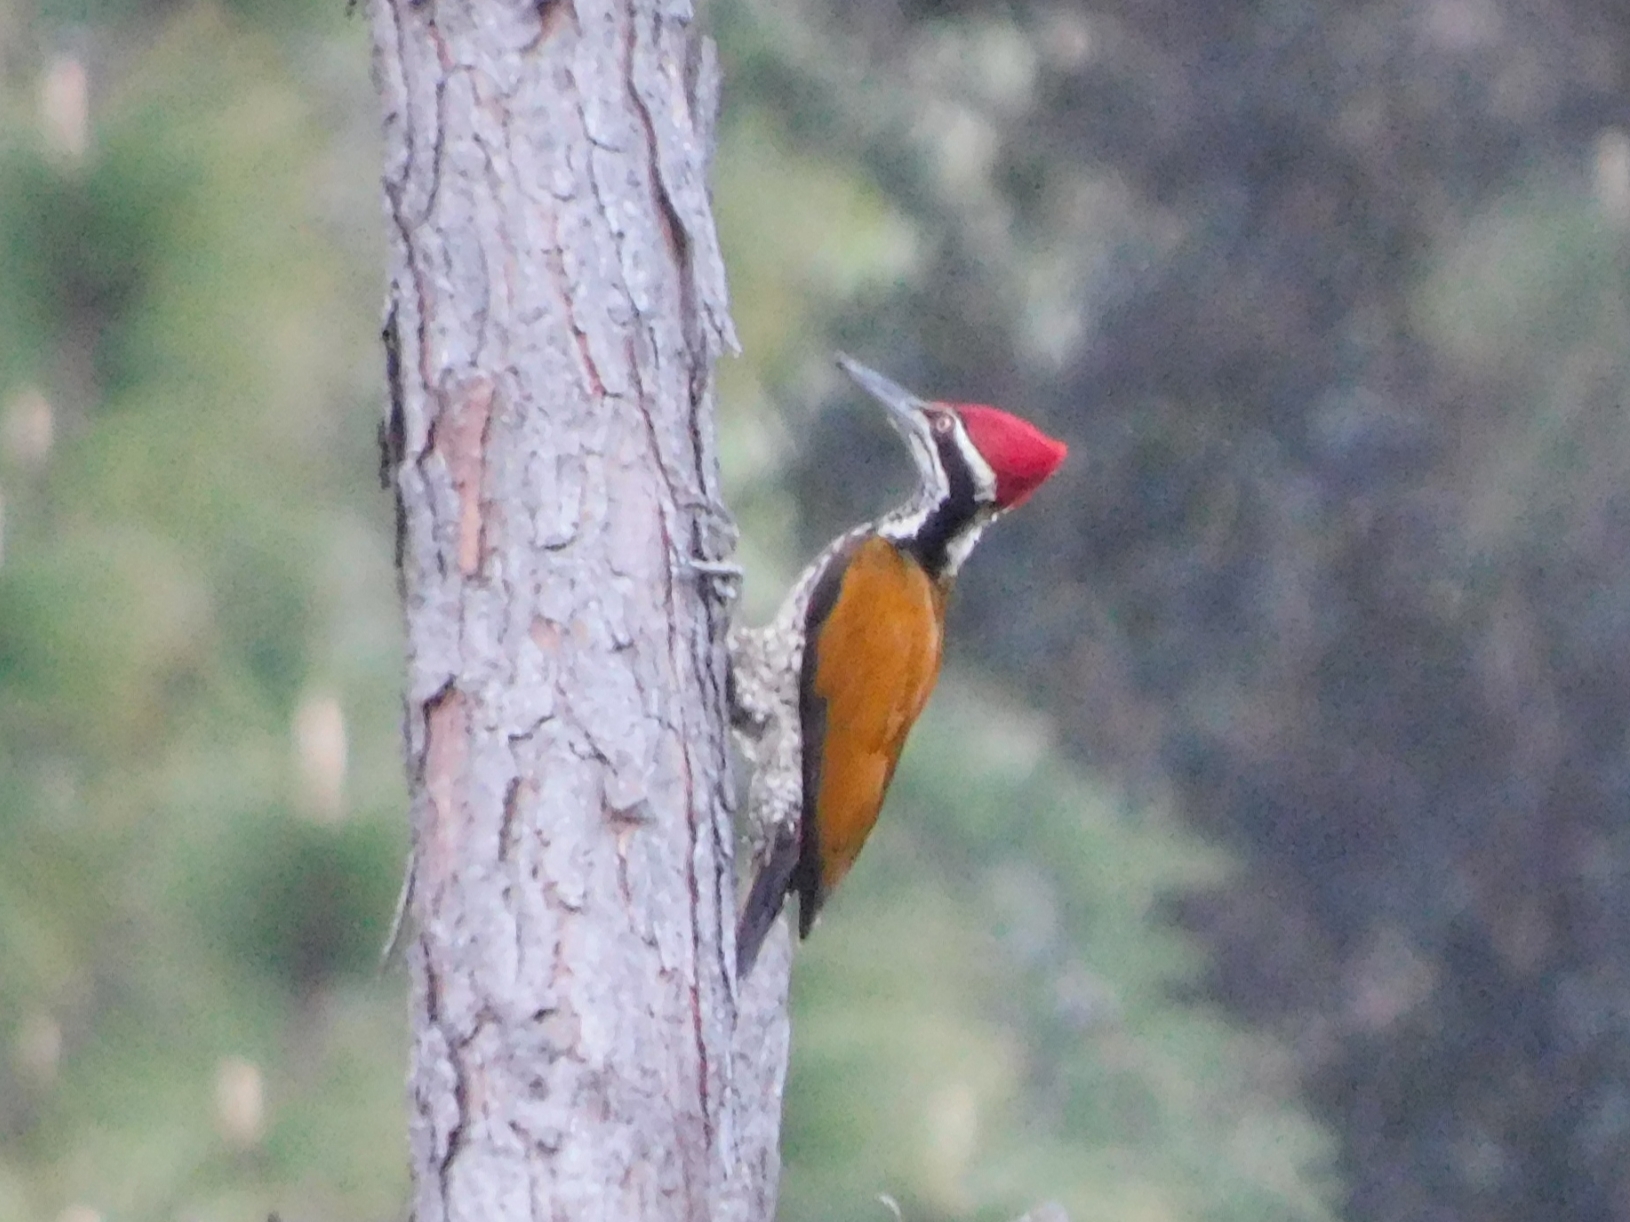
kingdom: Animalia
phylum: Chordata
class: Aves
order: Piciformes
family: Picidae
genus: Chrysocolaptes
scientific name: Chrysocolaptes guttacristatus
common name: Greater flameback
